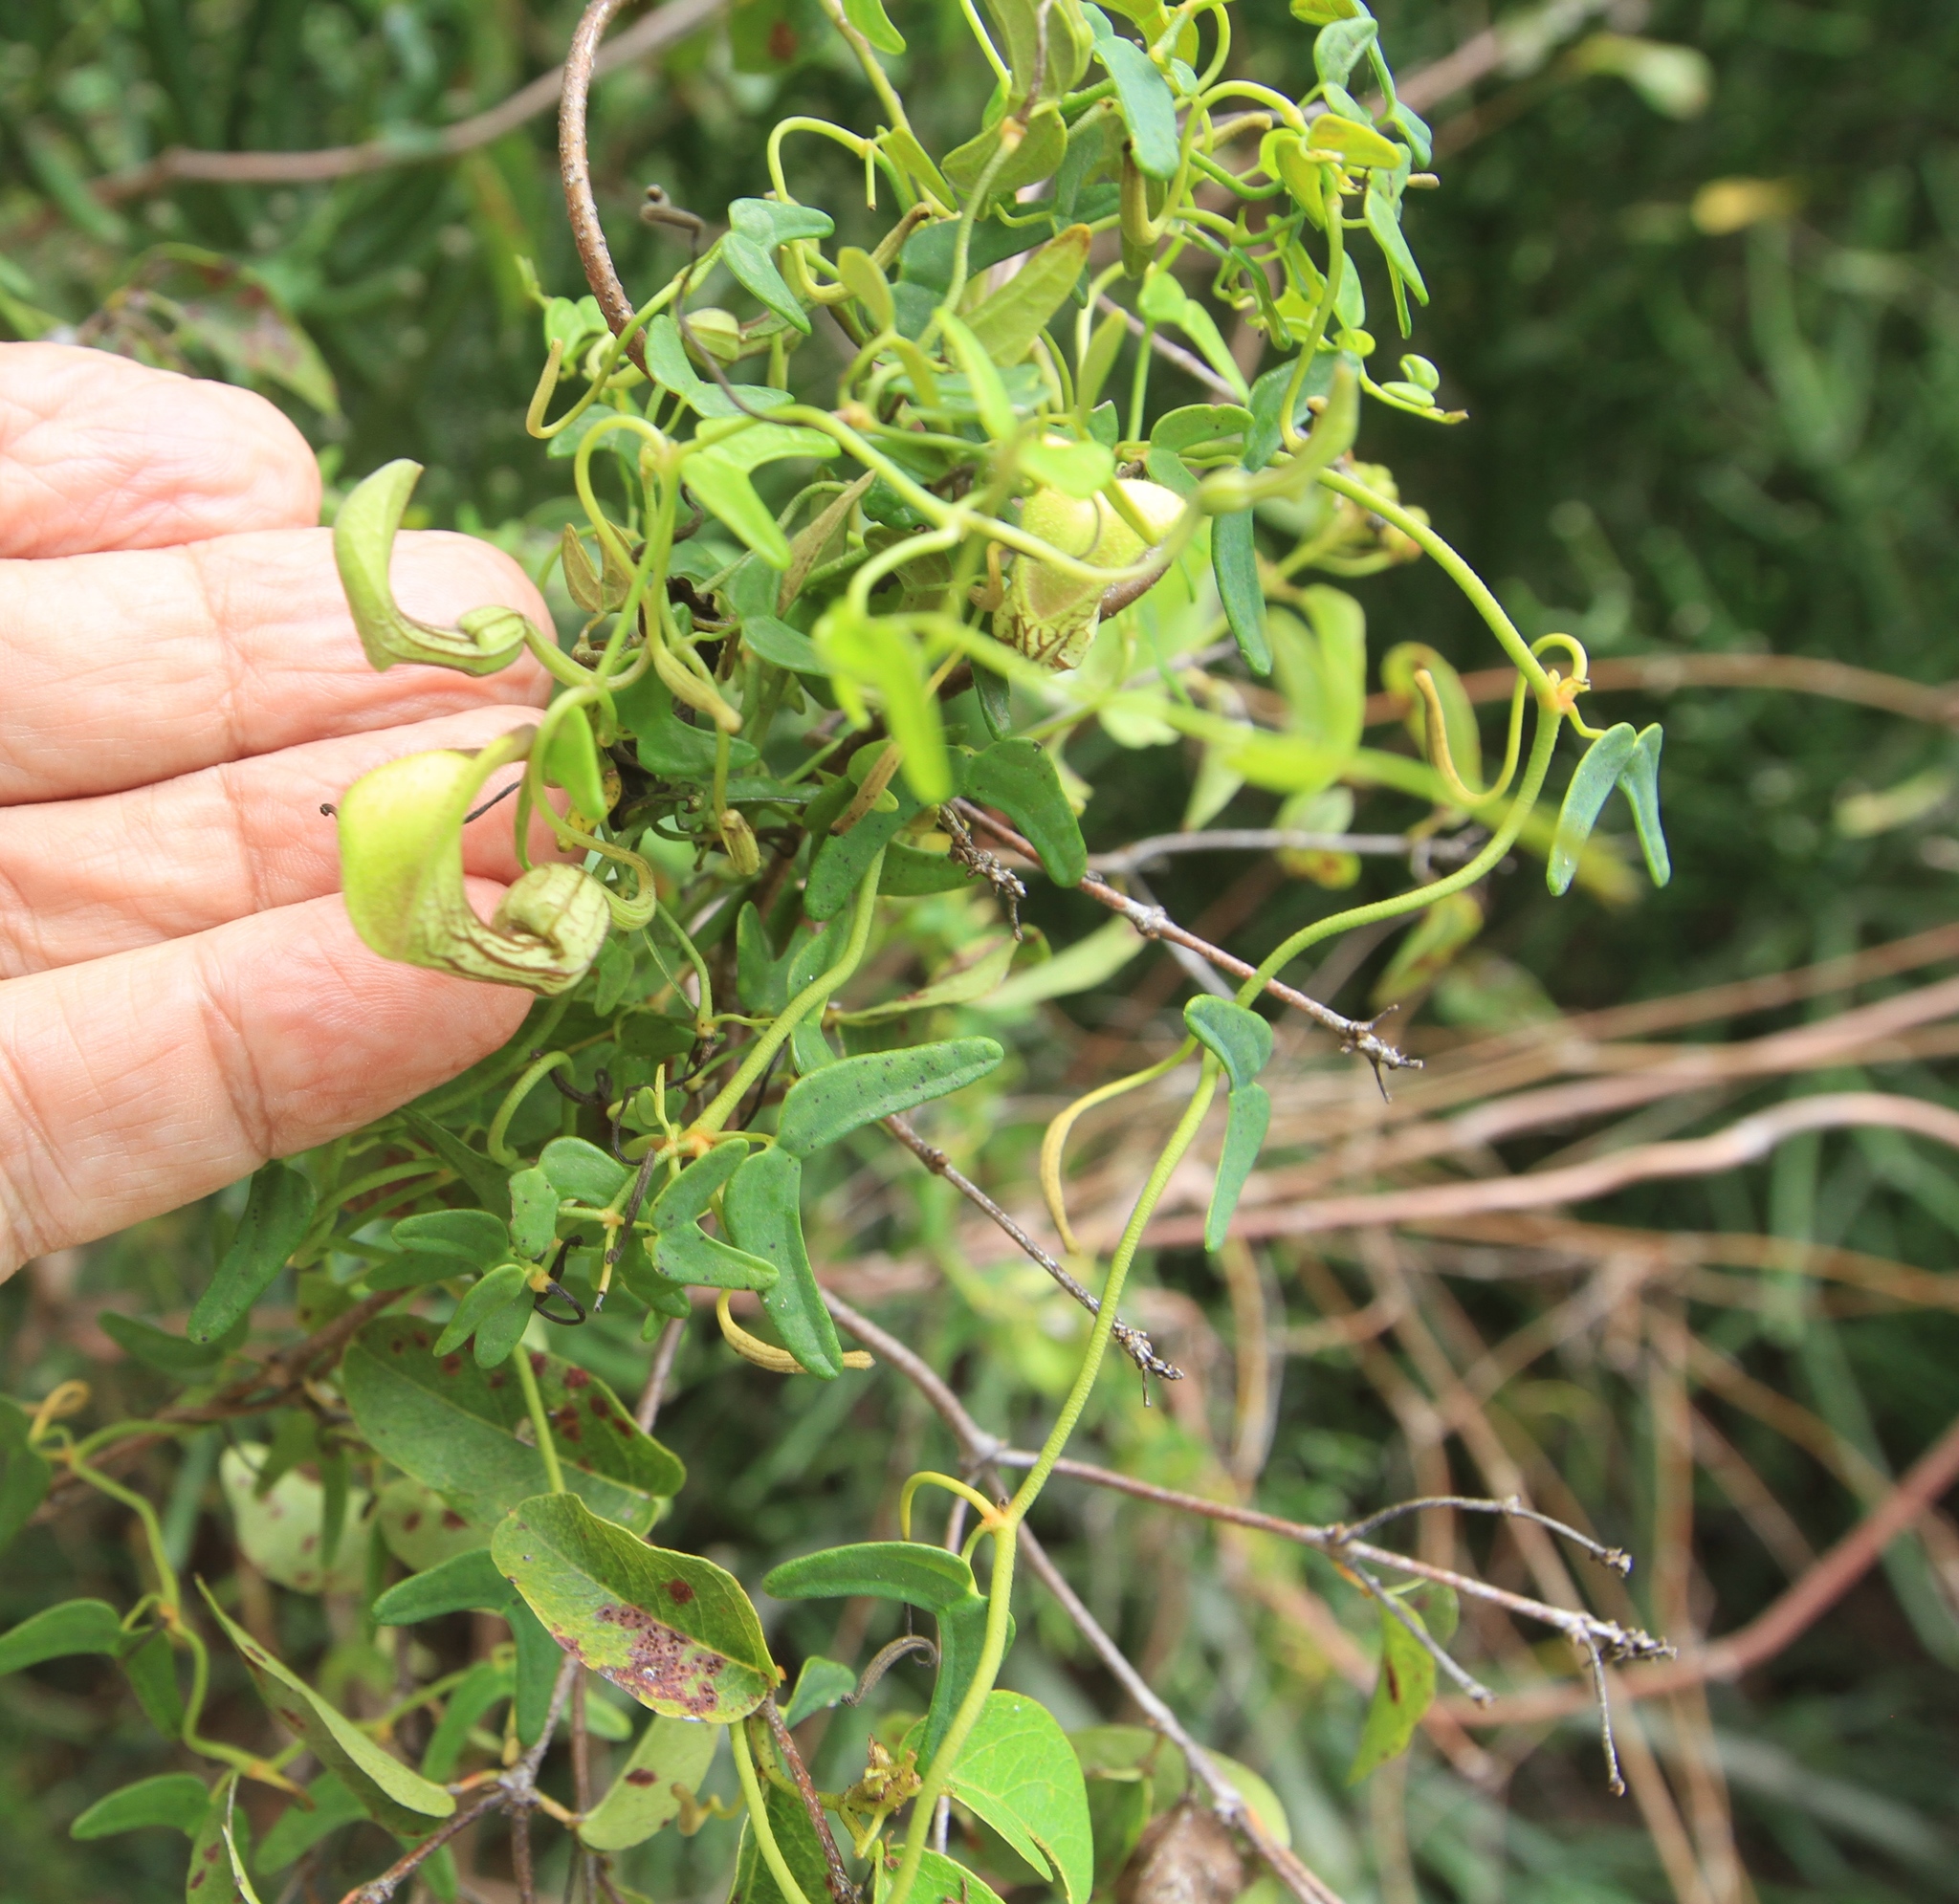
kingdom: Plantae
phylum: Tracheophyta
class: Magnoliopsida
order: Piperales
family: Aristolochiaceae
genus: Aristolochia
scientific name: Aristolochia bonettiana
